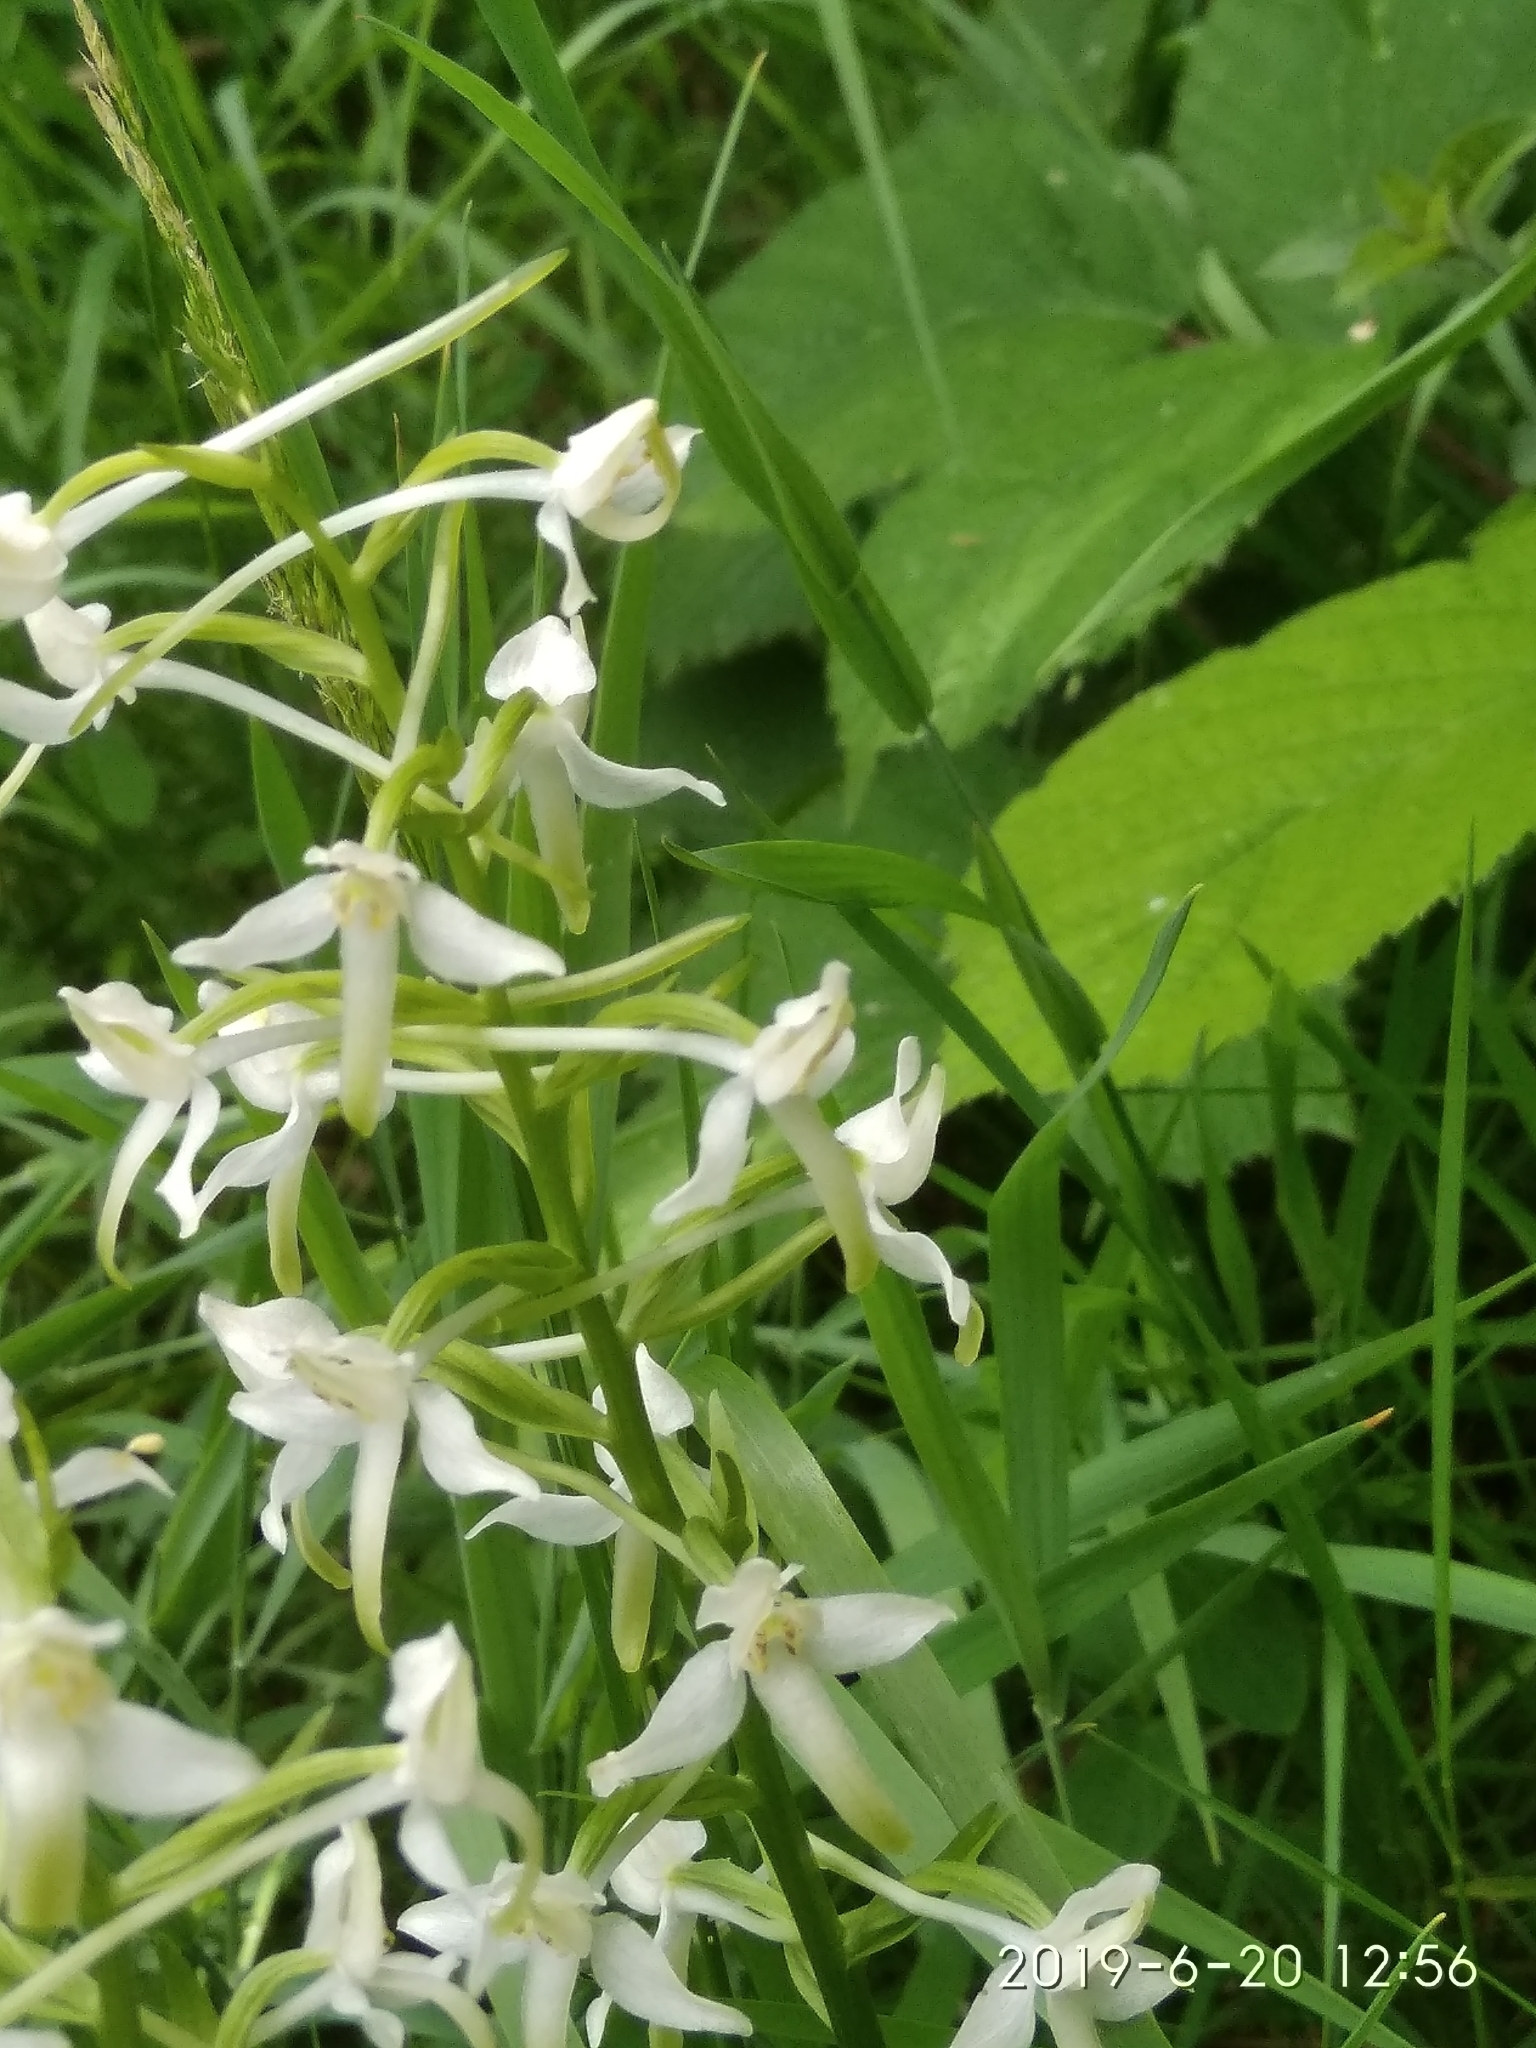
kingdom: Plantae
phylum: Tracheophyta
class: Liliopsida
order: Asparagales
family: Orchidaceae
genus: Platanthera
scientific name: Platanthera bifolia
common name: Lesser butterfly-orchid
